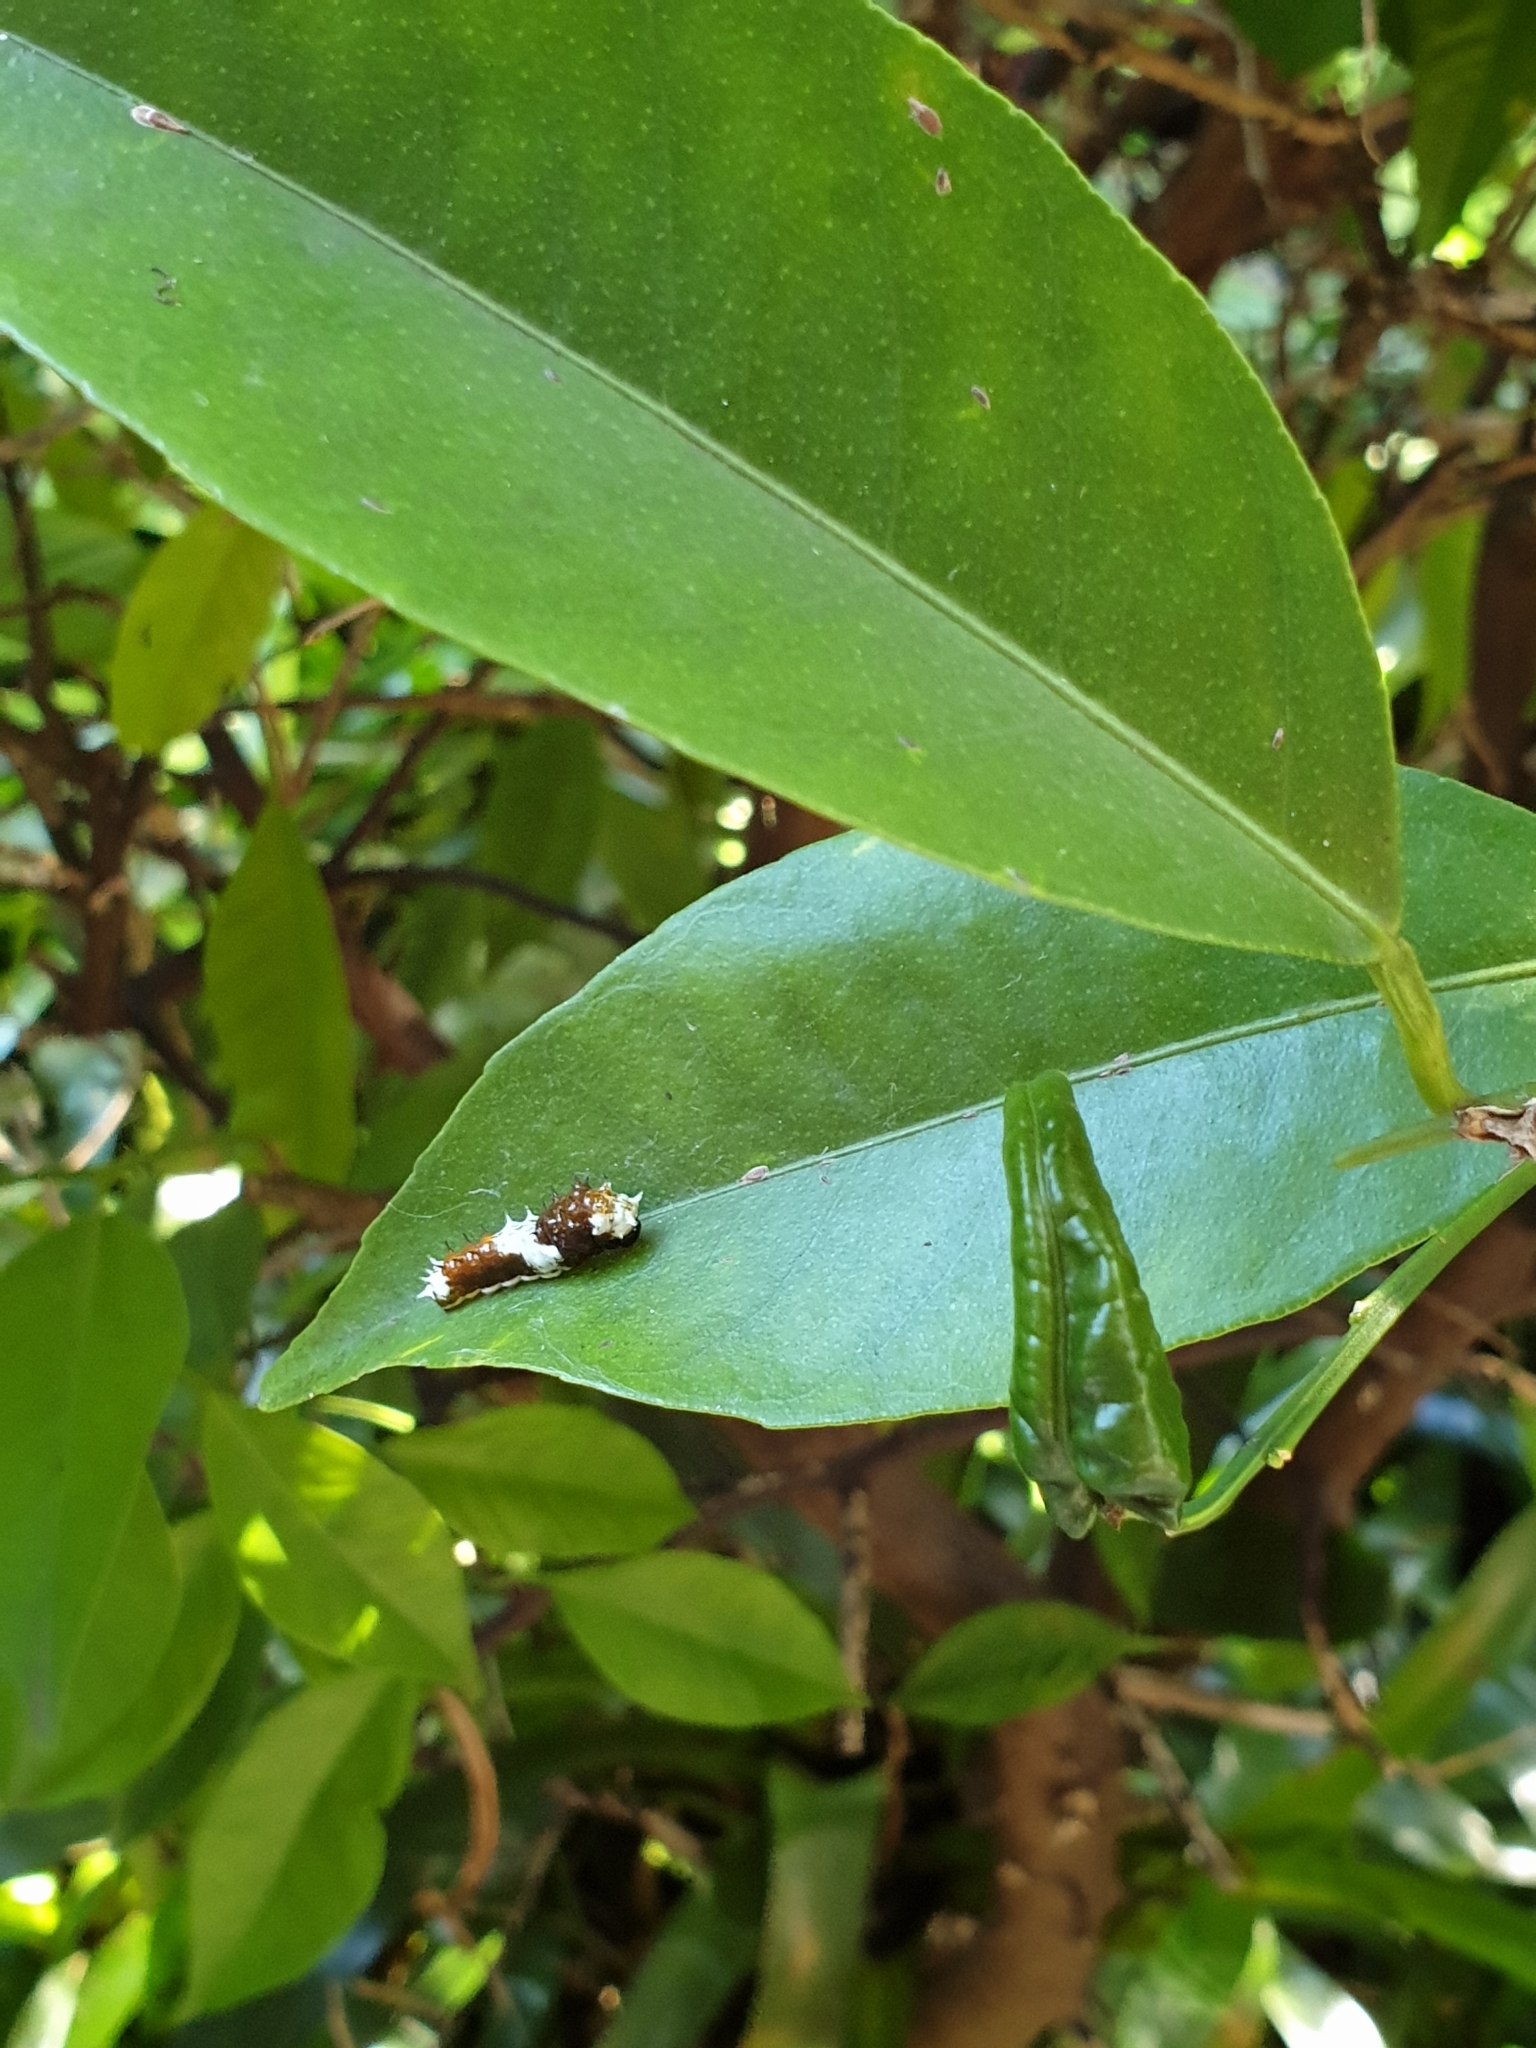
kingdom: Animalia
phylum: Arthropoda
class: Insecta
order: Lepidoptera
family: Papilionidae
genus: Papilio
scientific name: Papilio aegeus
